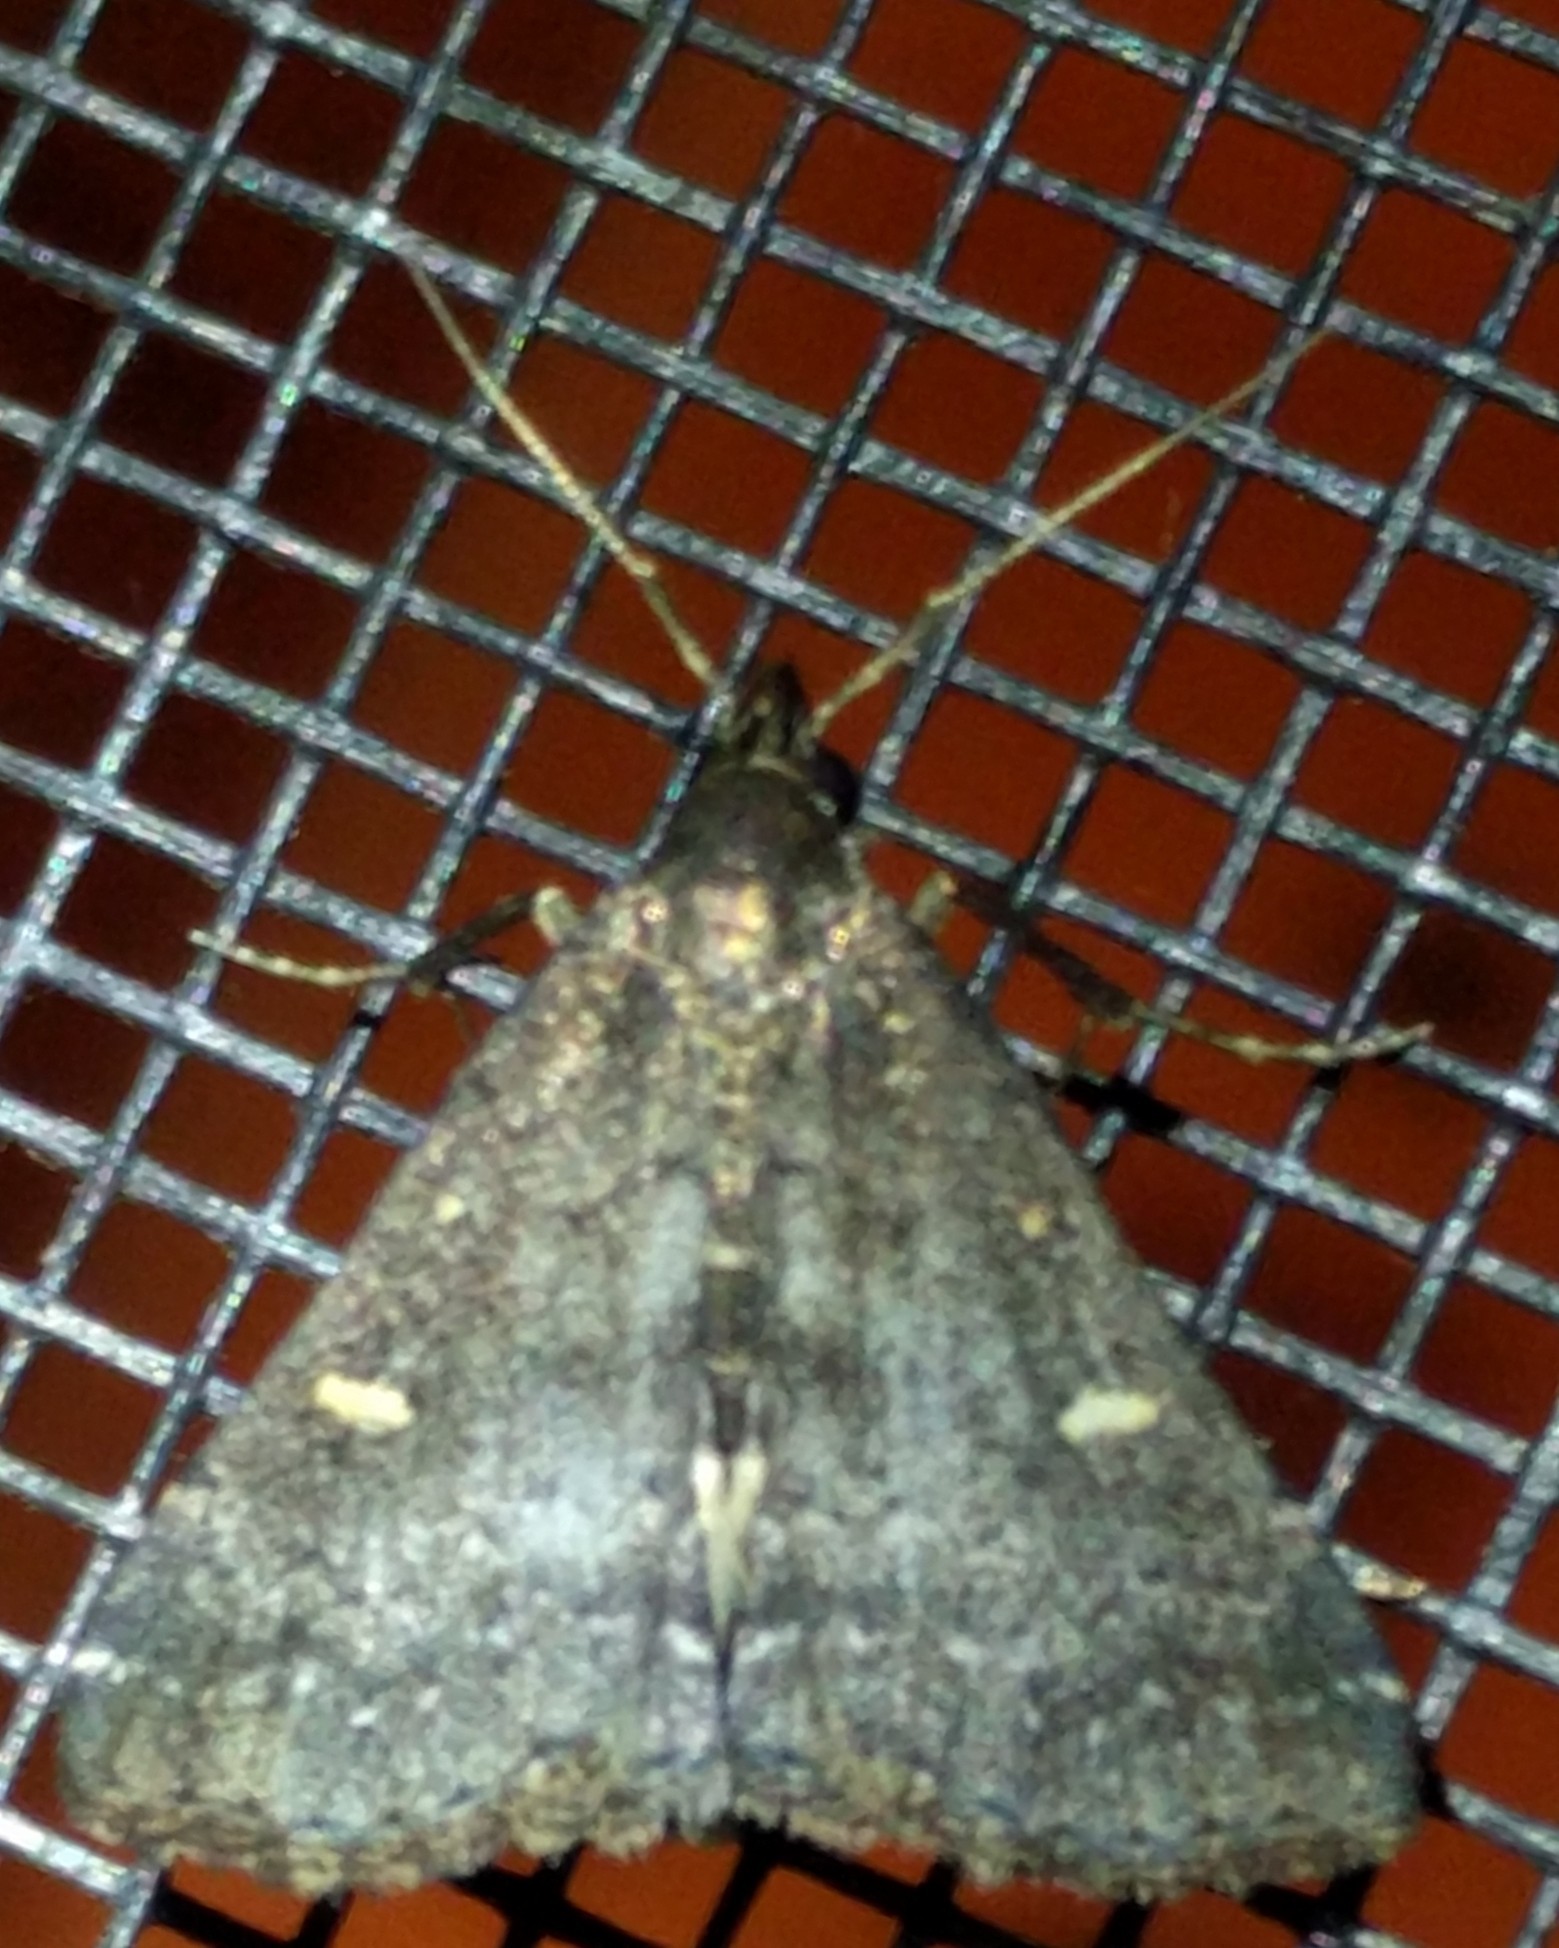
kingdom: Animalia
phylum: Arthropoda
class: Insecta
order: Lepidoptera
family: Erebidae
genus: Tetanolita
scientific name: Tetanolita mynesalis
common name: Smoky tetanolita moth
